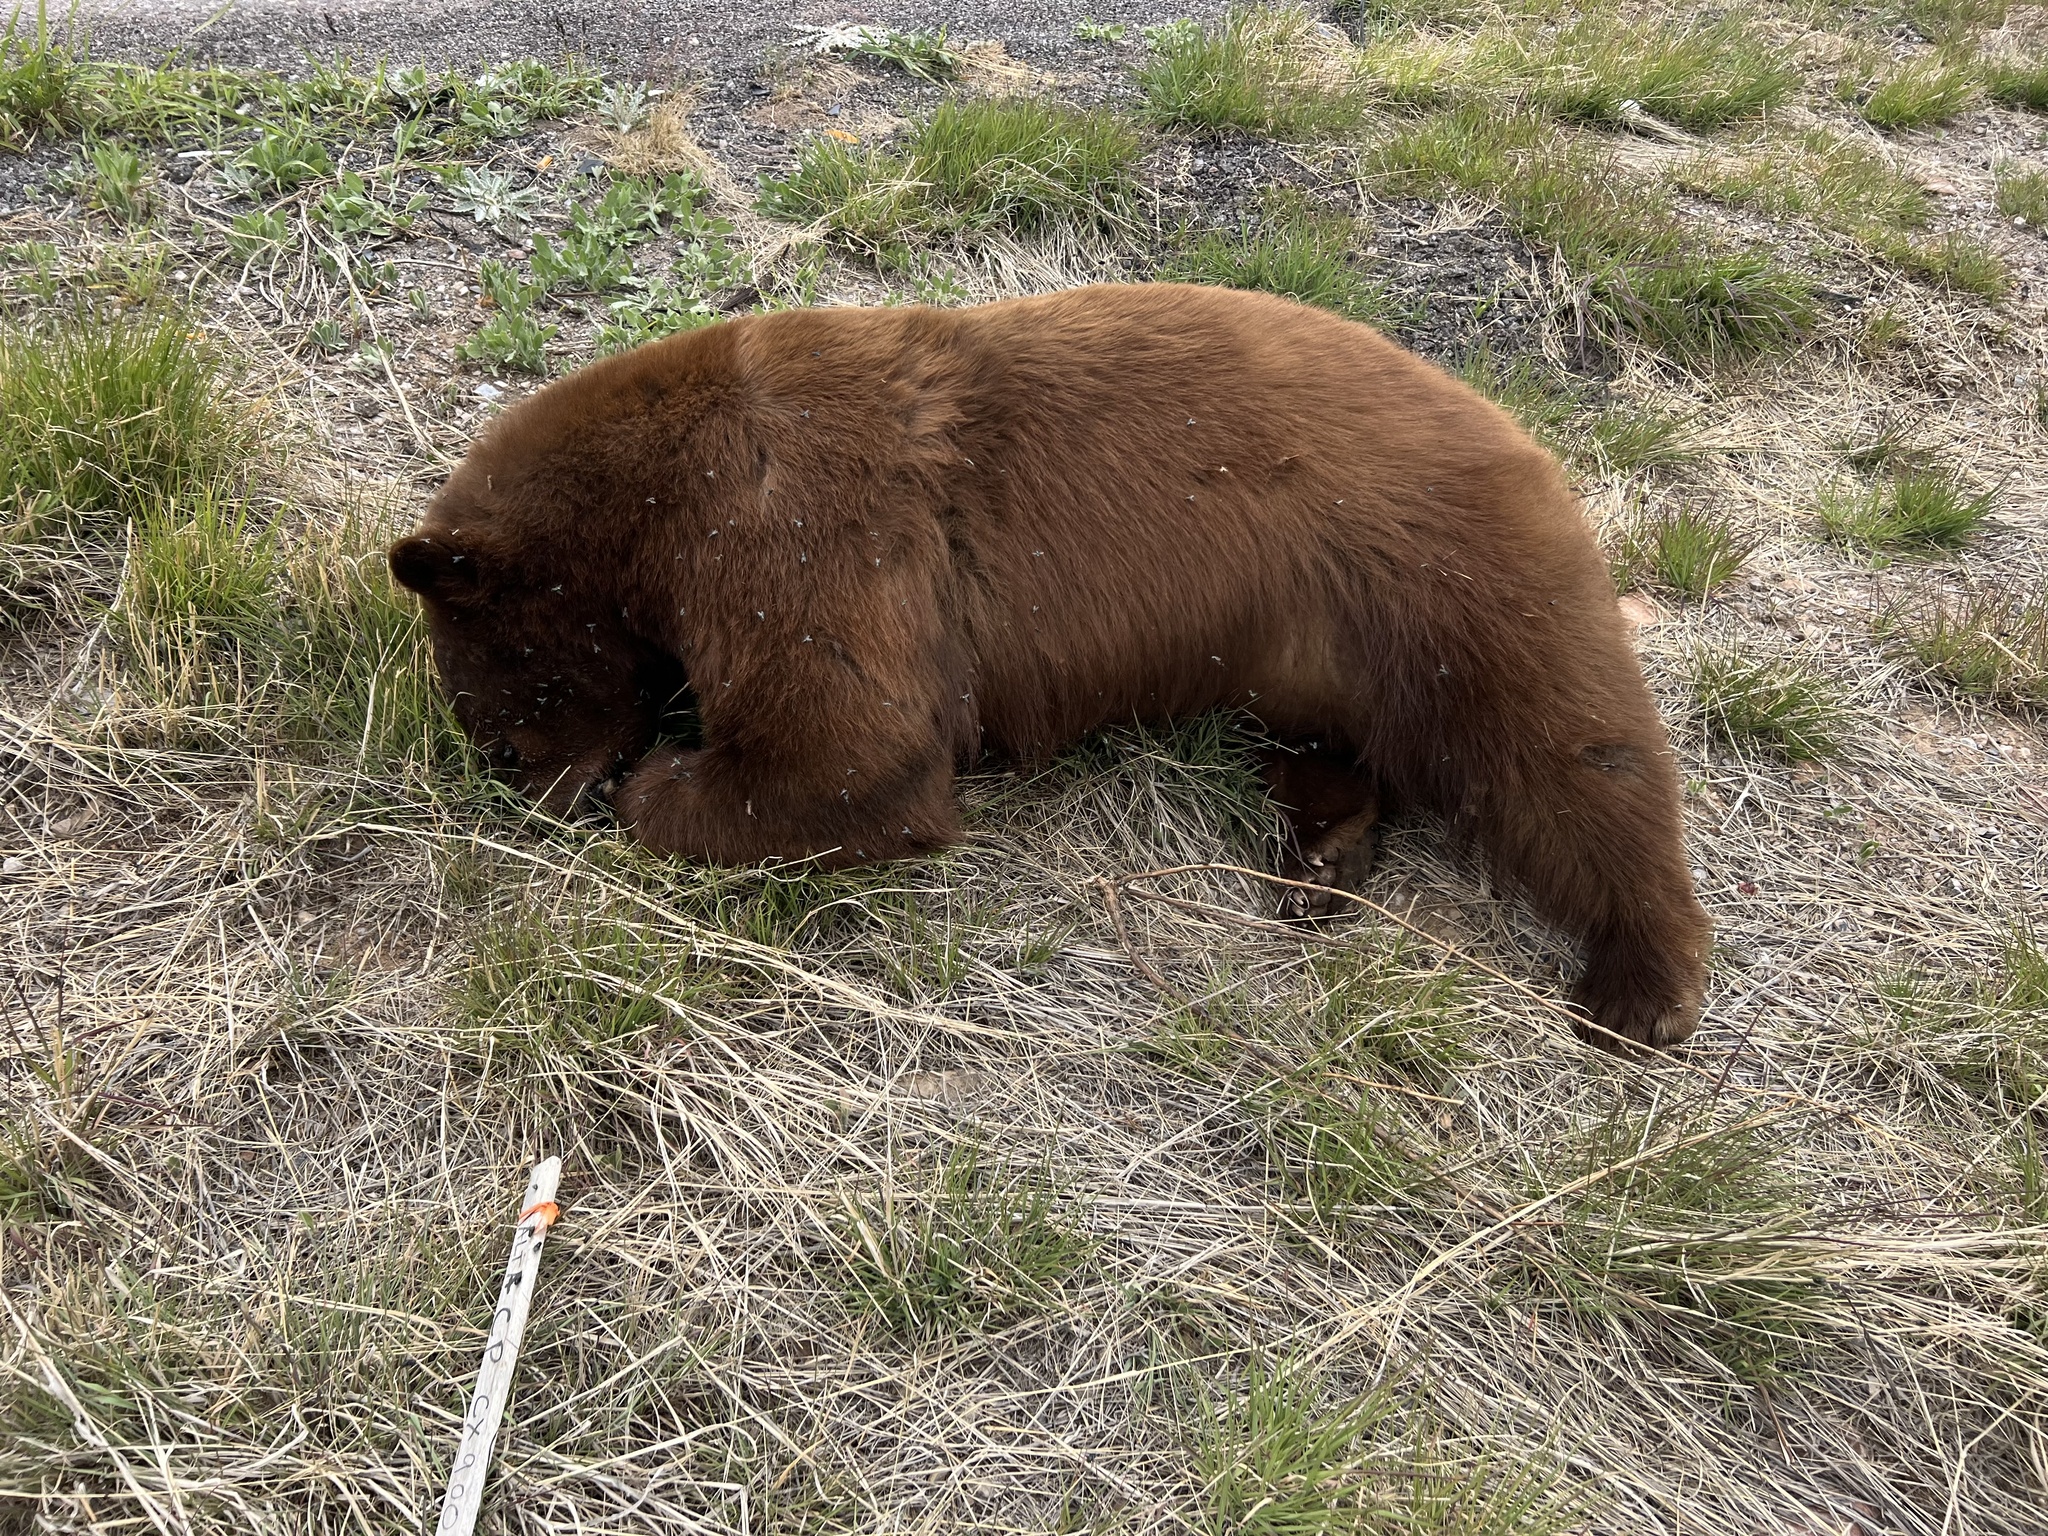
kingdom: Animalia
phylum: Chordata
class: Mammalia
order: Carnivora
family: Ursidae
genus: Ursus
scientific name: Ursus americanus
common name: American black bear
